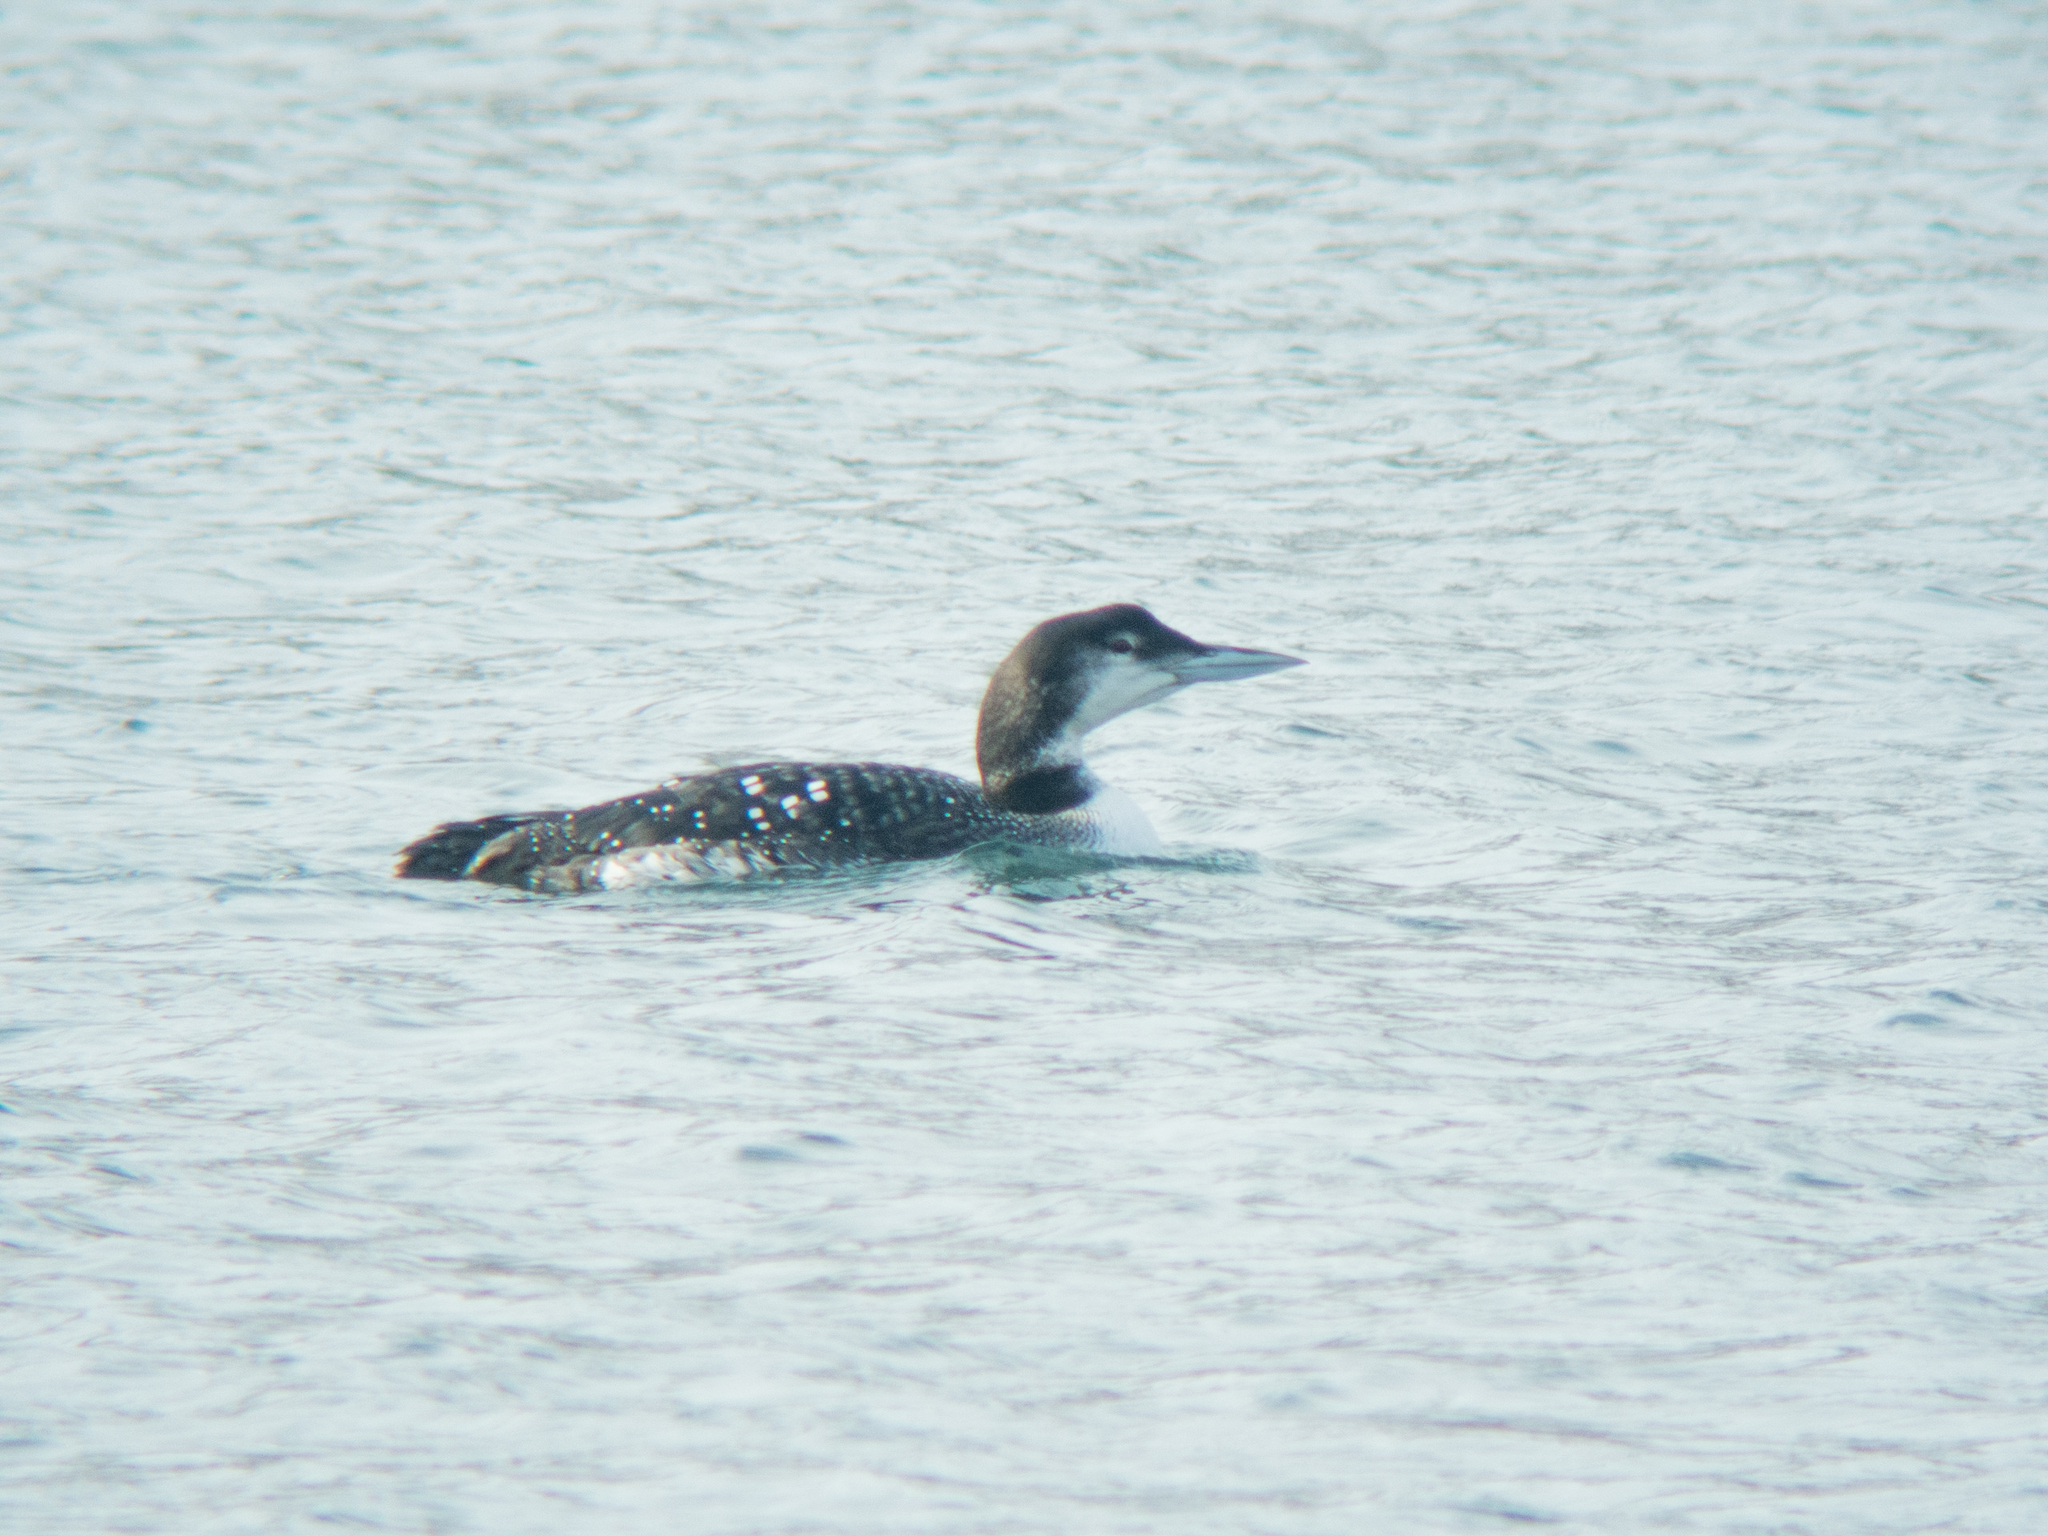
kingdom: Animalia
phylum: Chordata
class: Aves
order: Gaviiformes
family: Gaviidae
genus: Gavia
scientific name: Gavia immer
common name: Common loon
